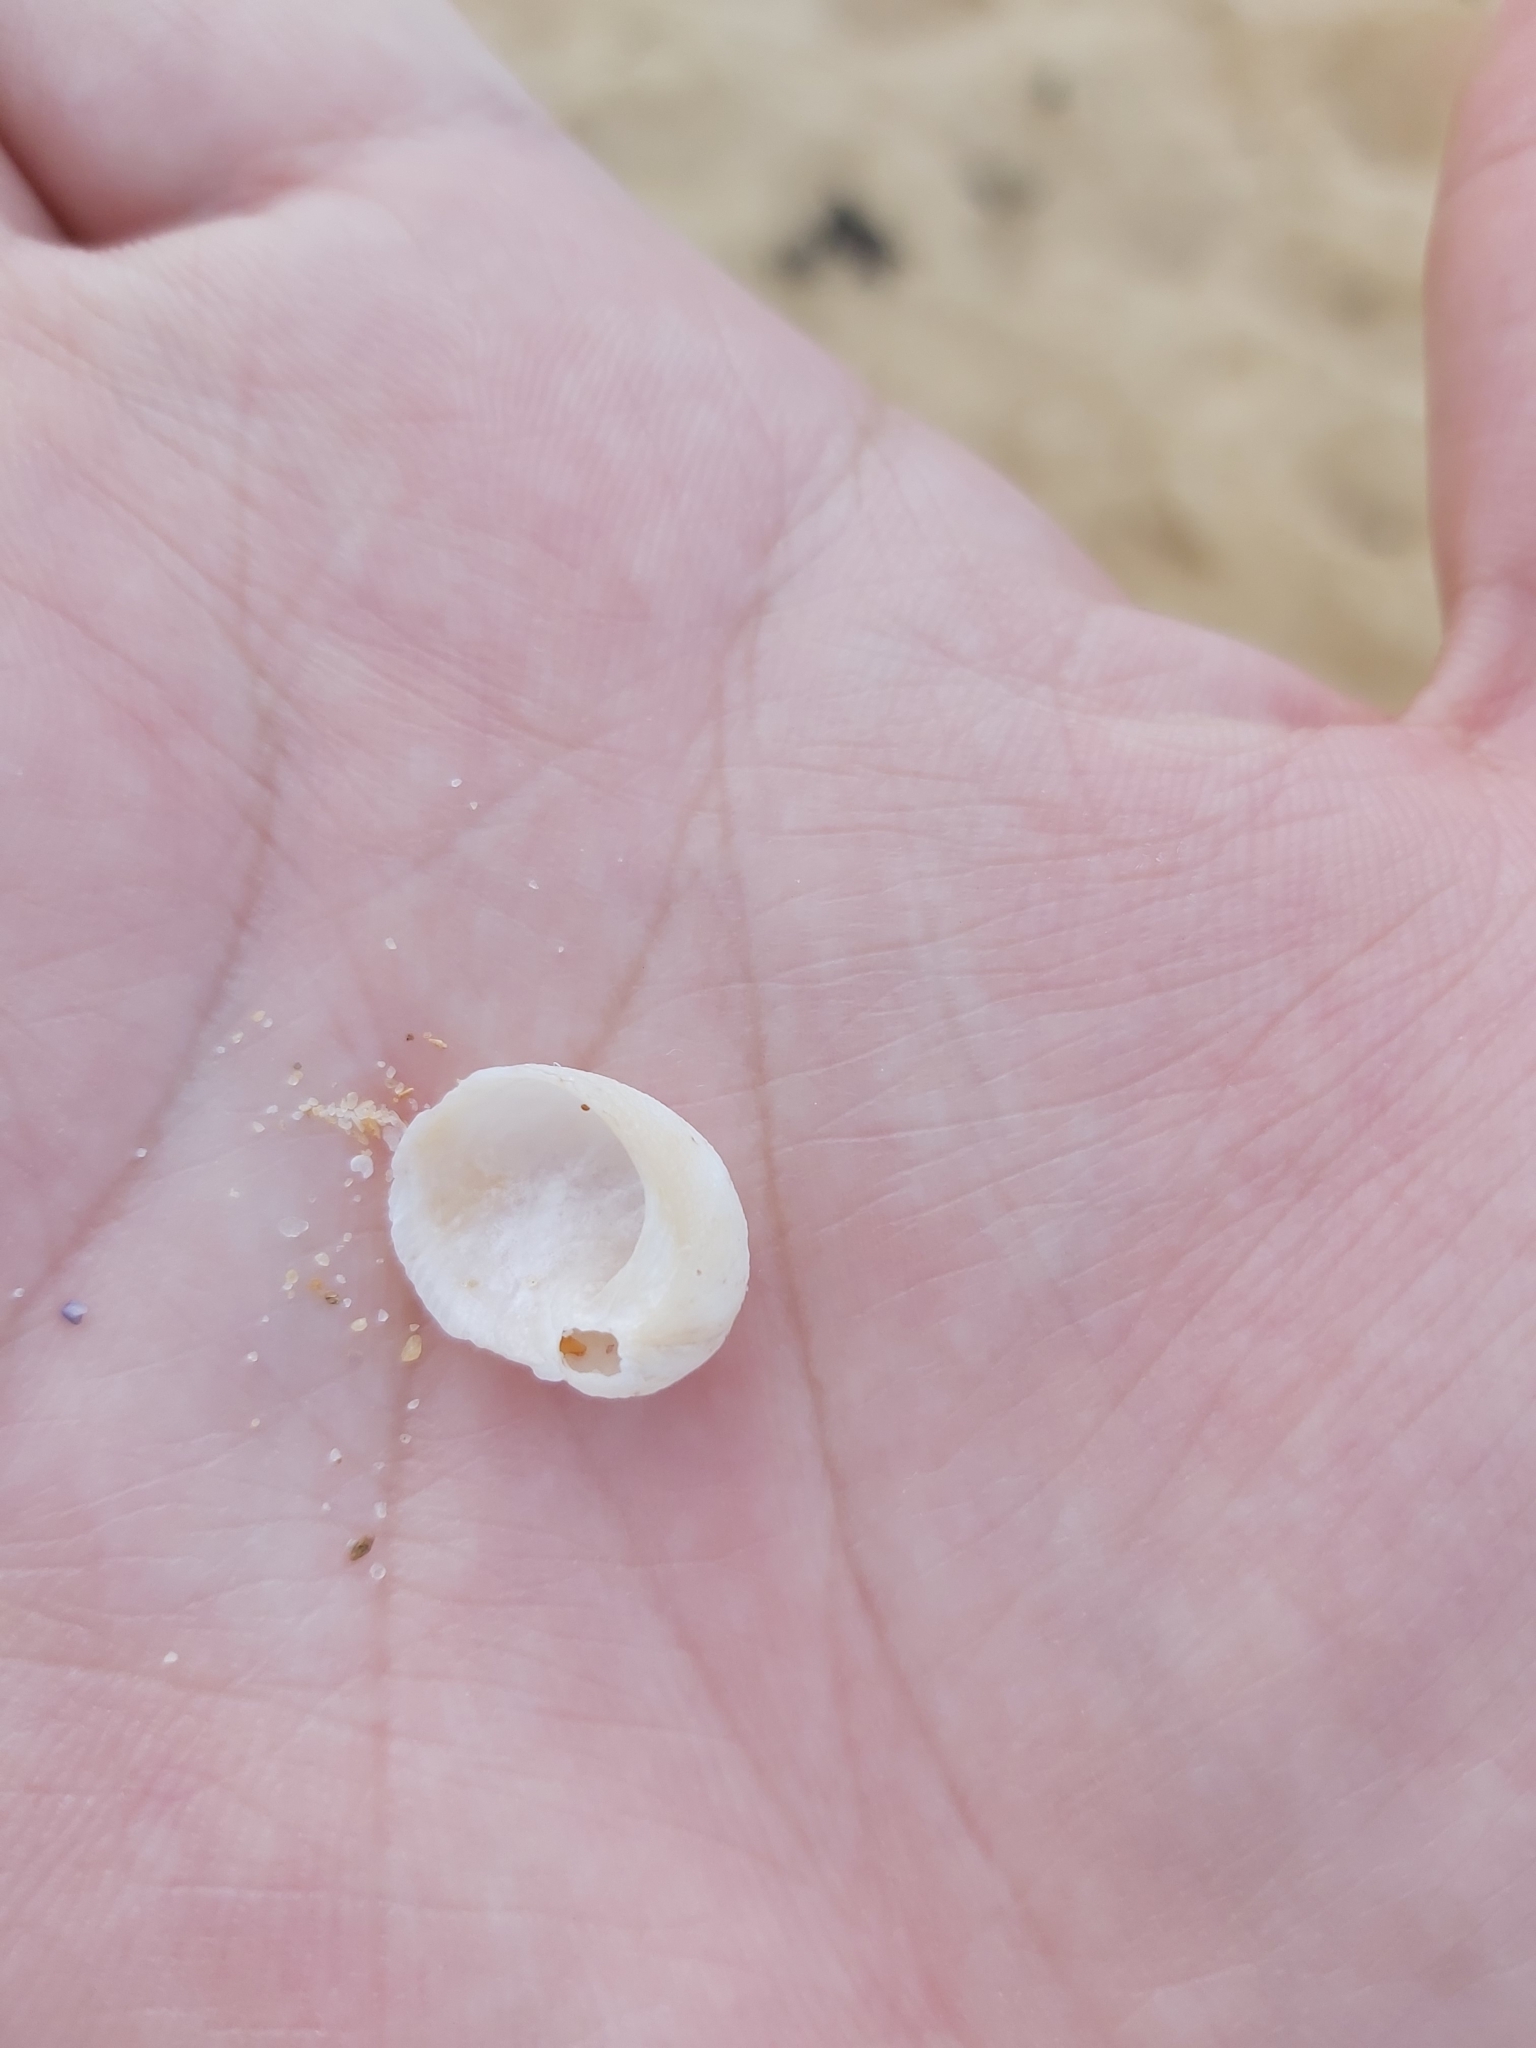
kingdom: Animalia
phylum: Mollusca
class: Gastropoda
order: Seguenziida
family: Chilodontaidae
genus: Granata
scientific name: Granata imbricata
